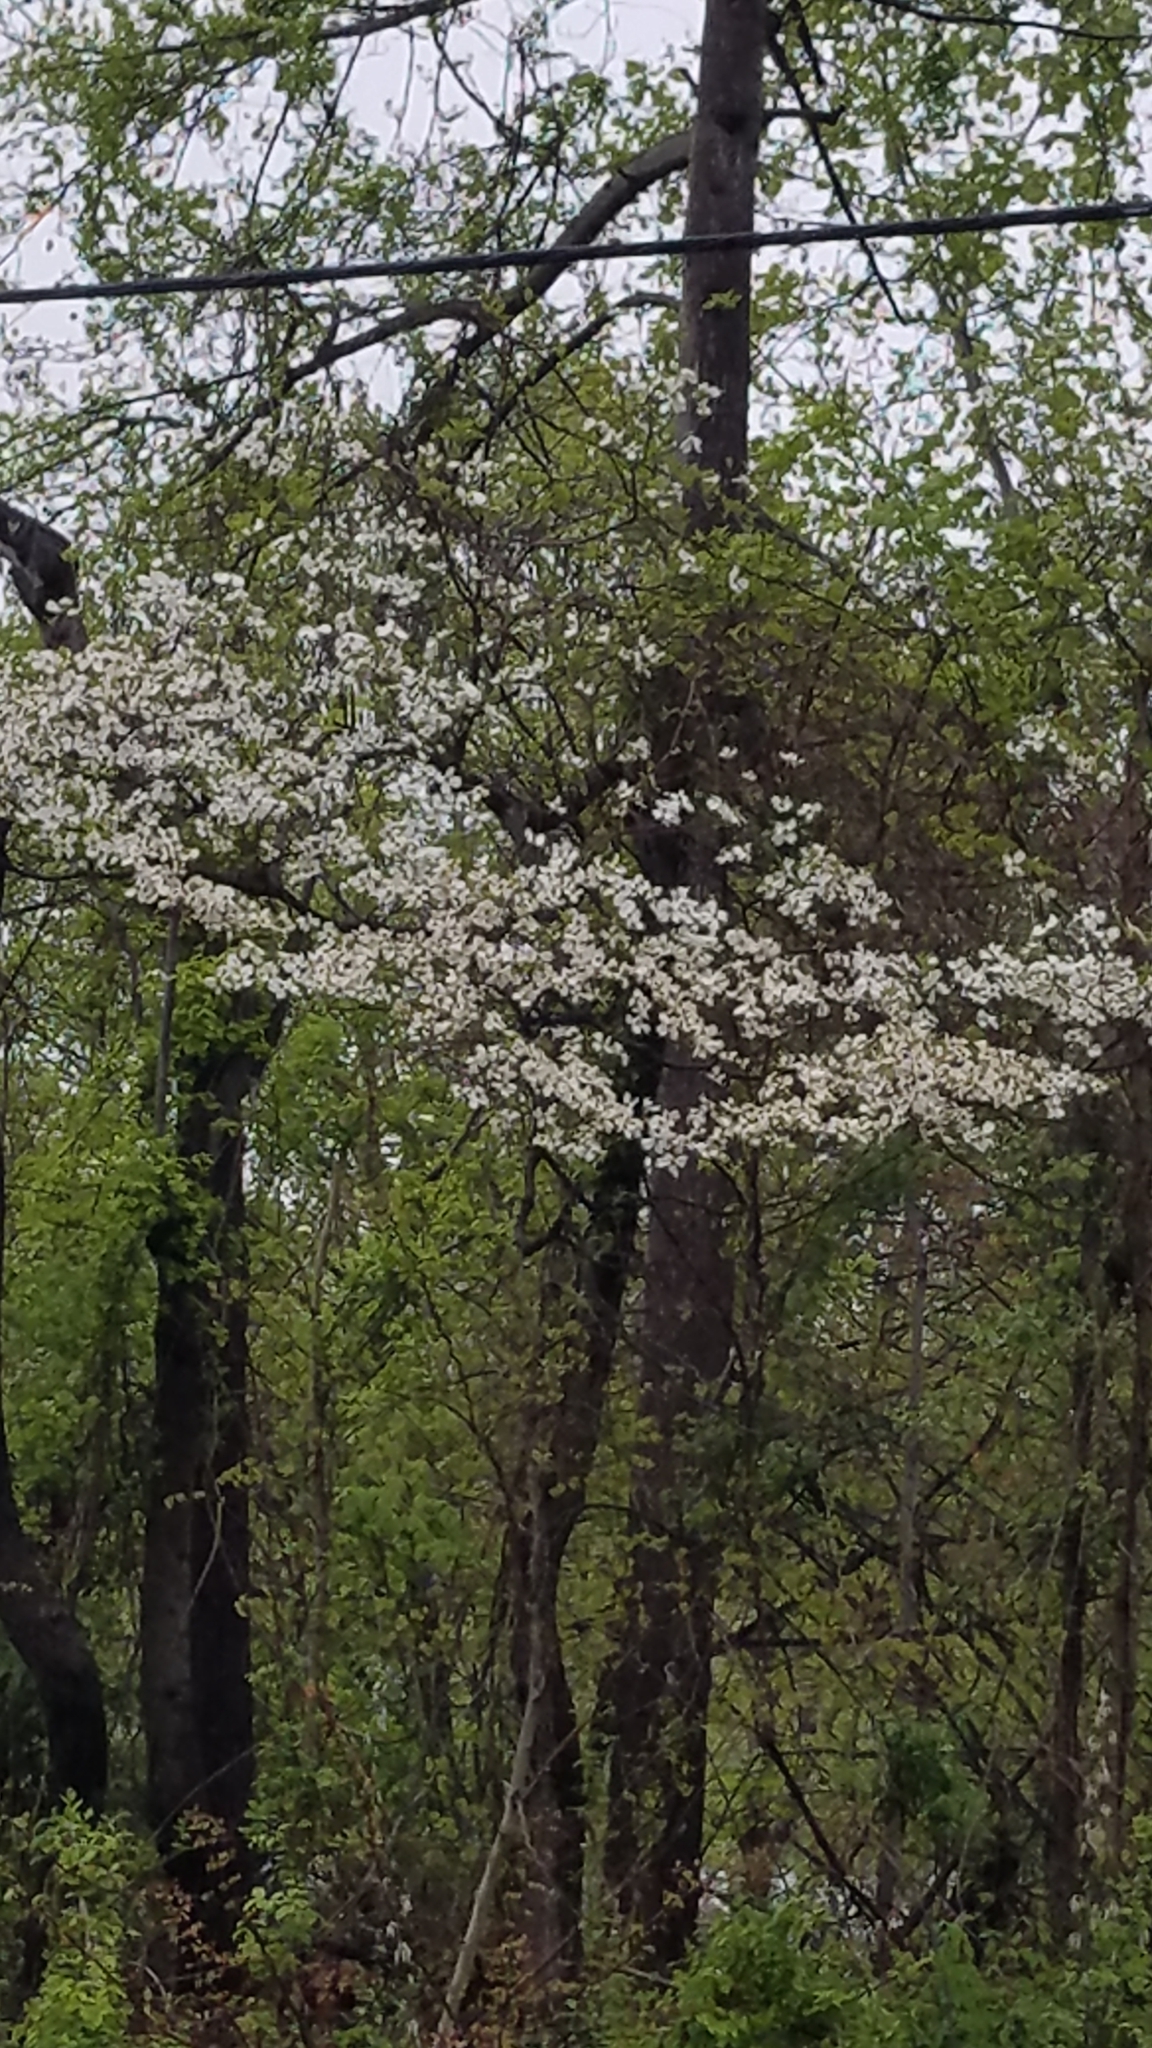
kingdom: Plantae
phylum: Tracheophyta
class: Magnoliopsida
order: Cornales
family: Cornaceae
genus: Cornus
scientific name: Cornus florida
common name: Flowering dogwood
